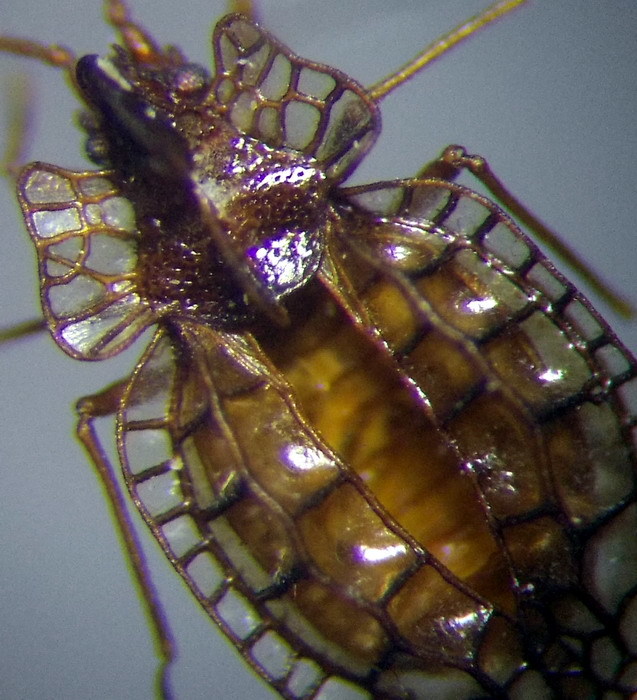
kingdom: Animalia
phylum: Arthropoda
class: Insecta
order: Hemiptera
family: Tingidae
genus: Derephysia
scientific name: Derephysia cristata
